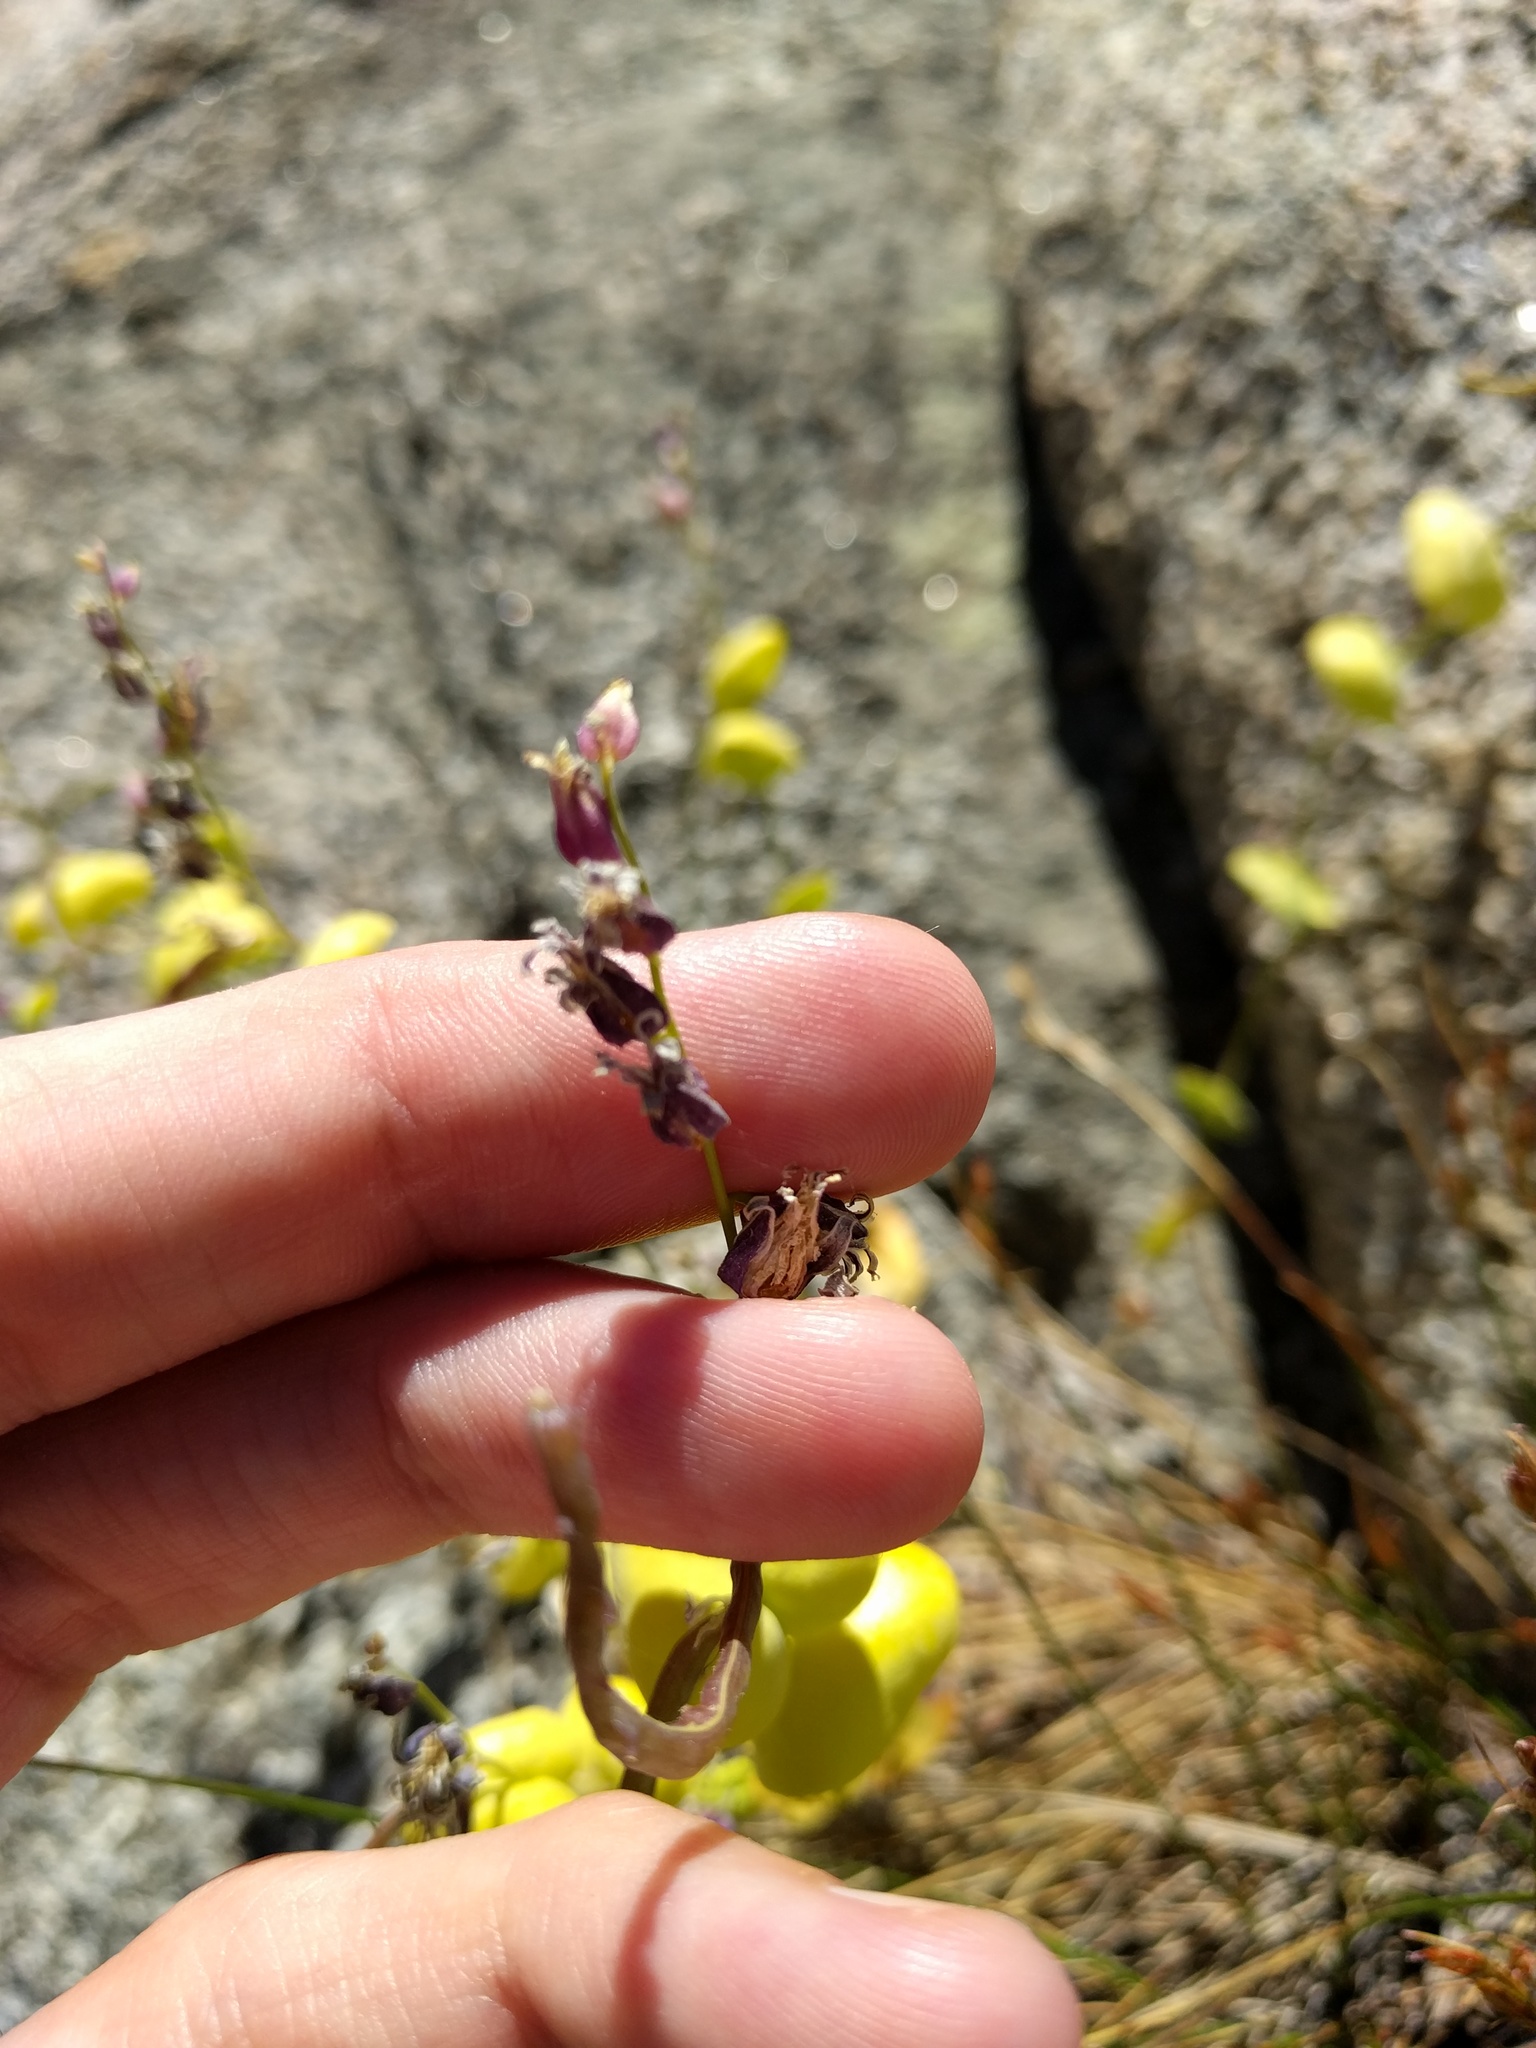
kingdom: Plantae
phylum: Tracheophyta
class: Magnoliopsida
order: Brassicales
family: Brassicaceae
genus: Streptanthus
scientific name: Streptanthus tortuosus
